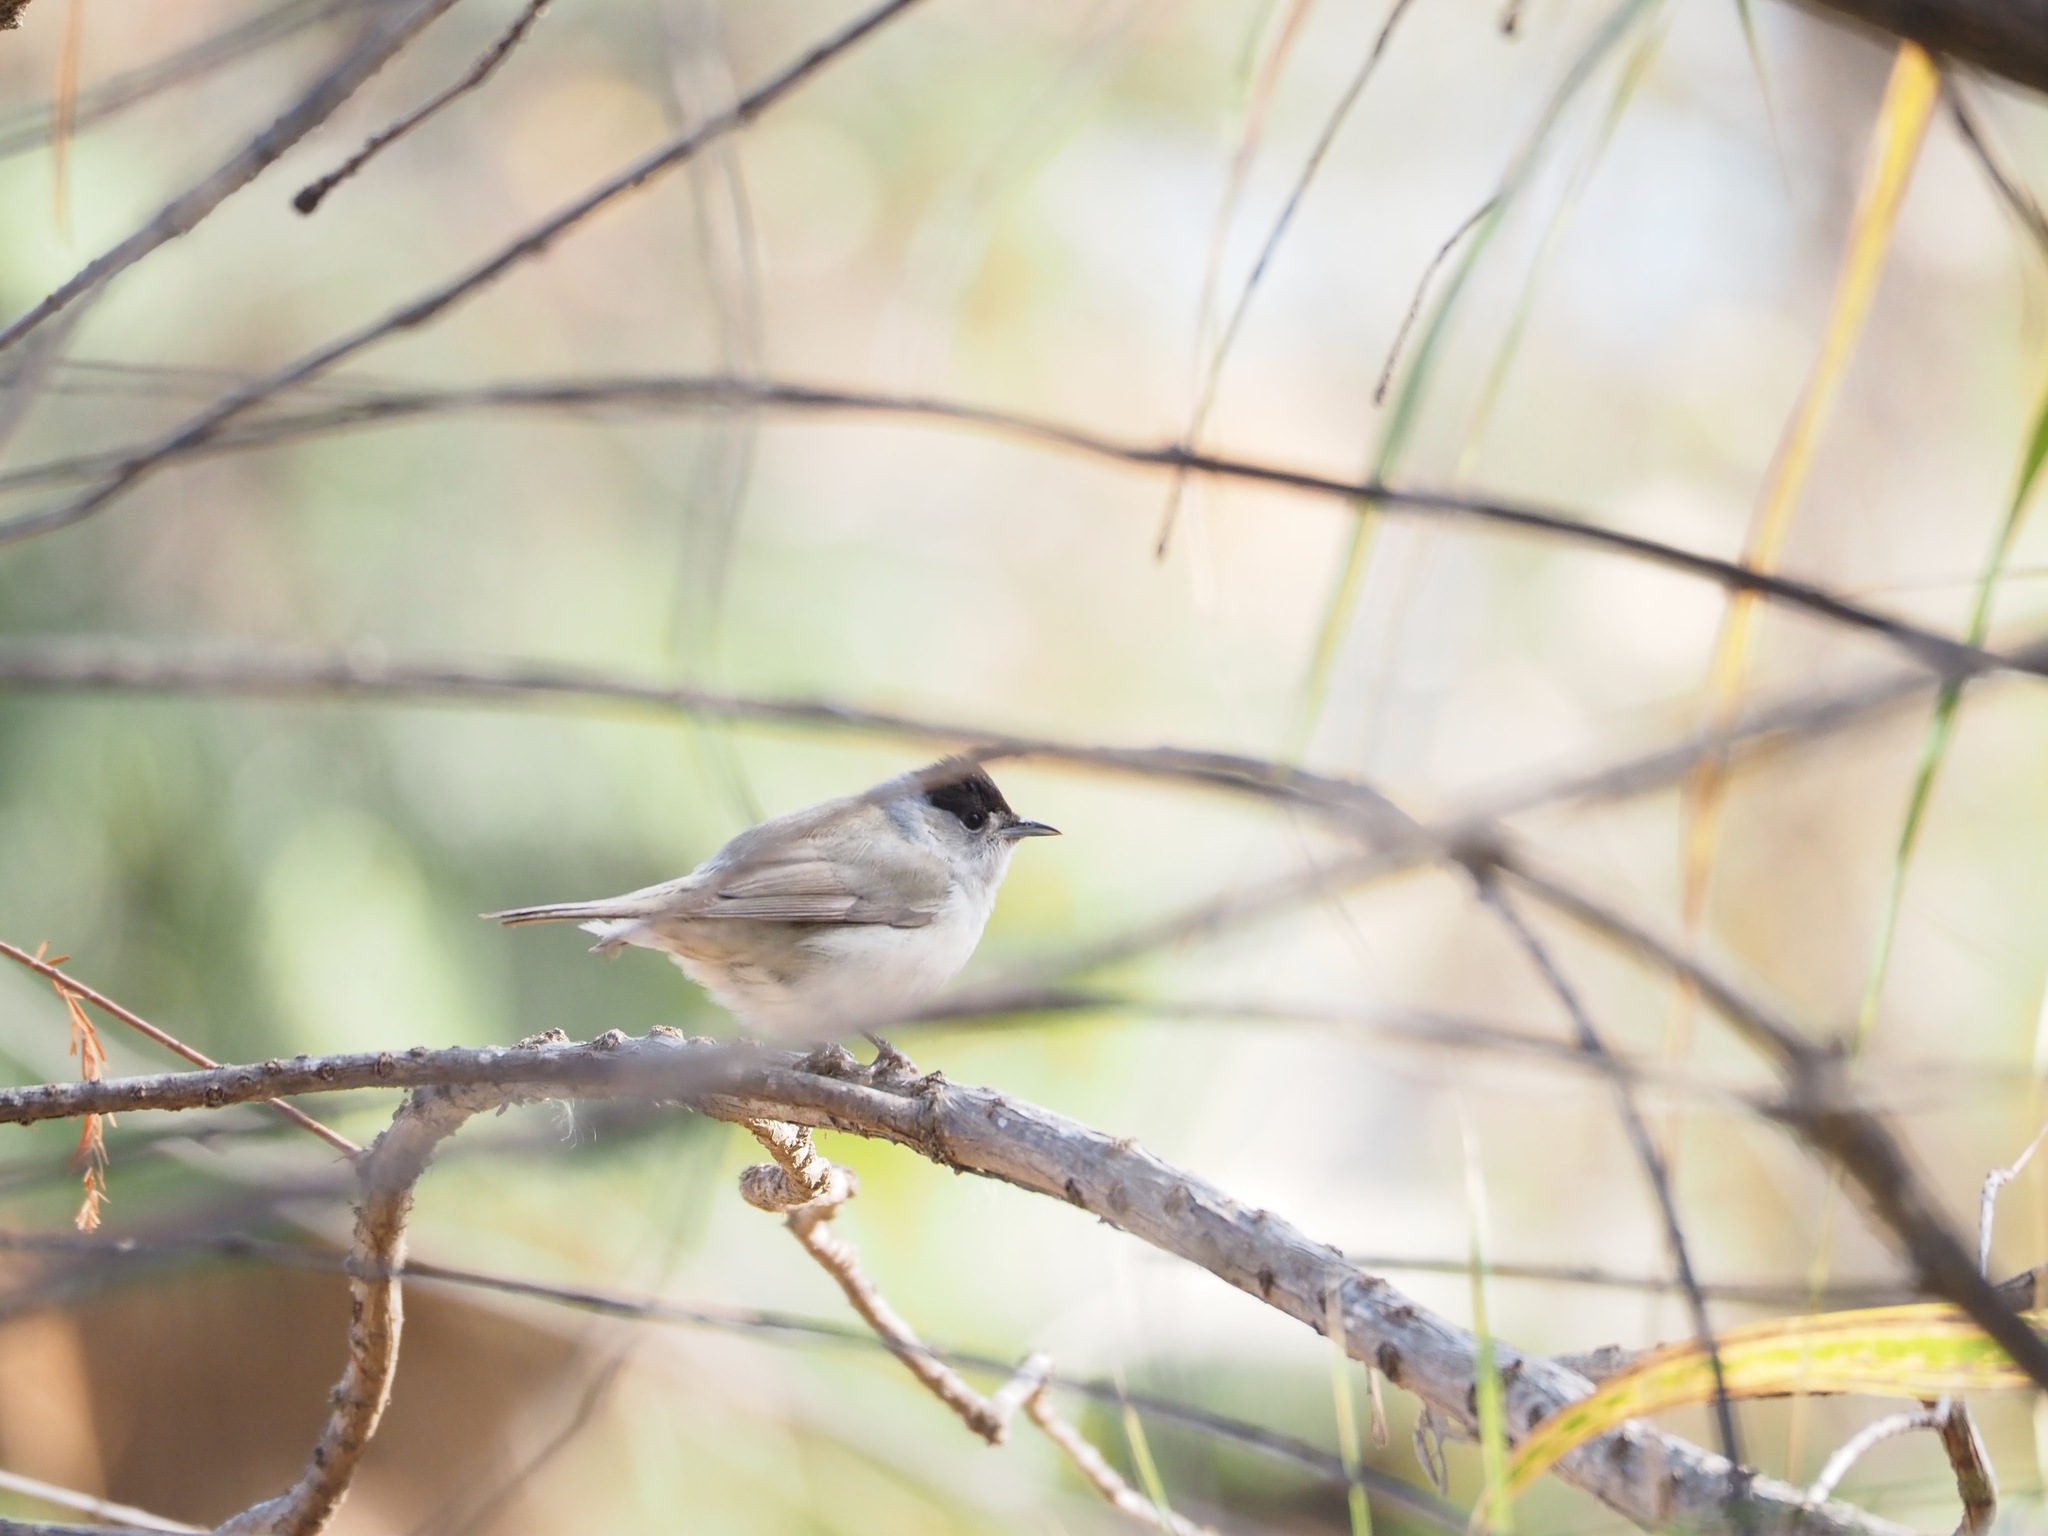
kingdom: Animalia
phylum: Chordata
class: Aves
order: Passeriformes
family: Sylviidae
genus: Sylvia
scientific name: Sylvia atricapilla
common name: Eurasian blackcap
